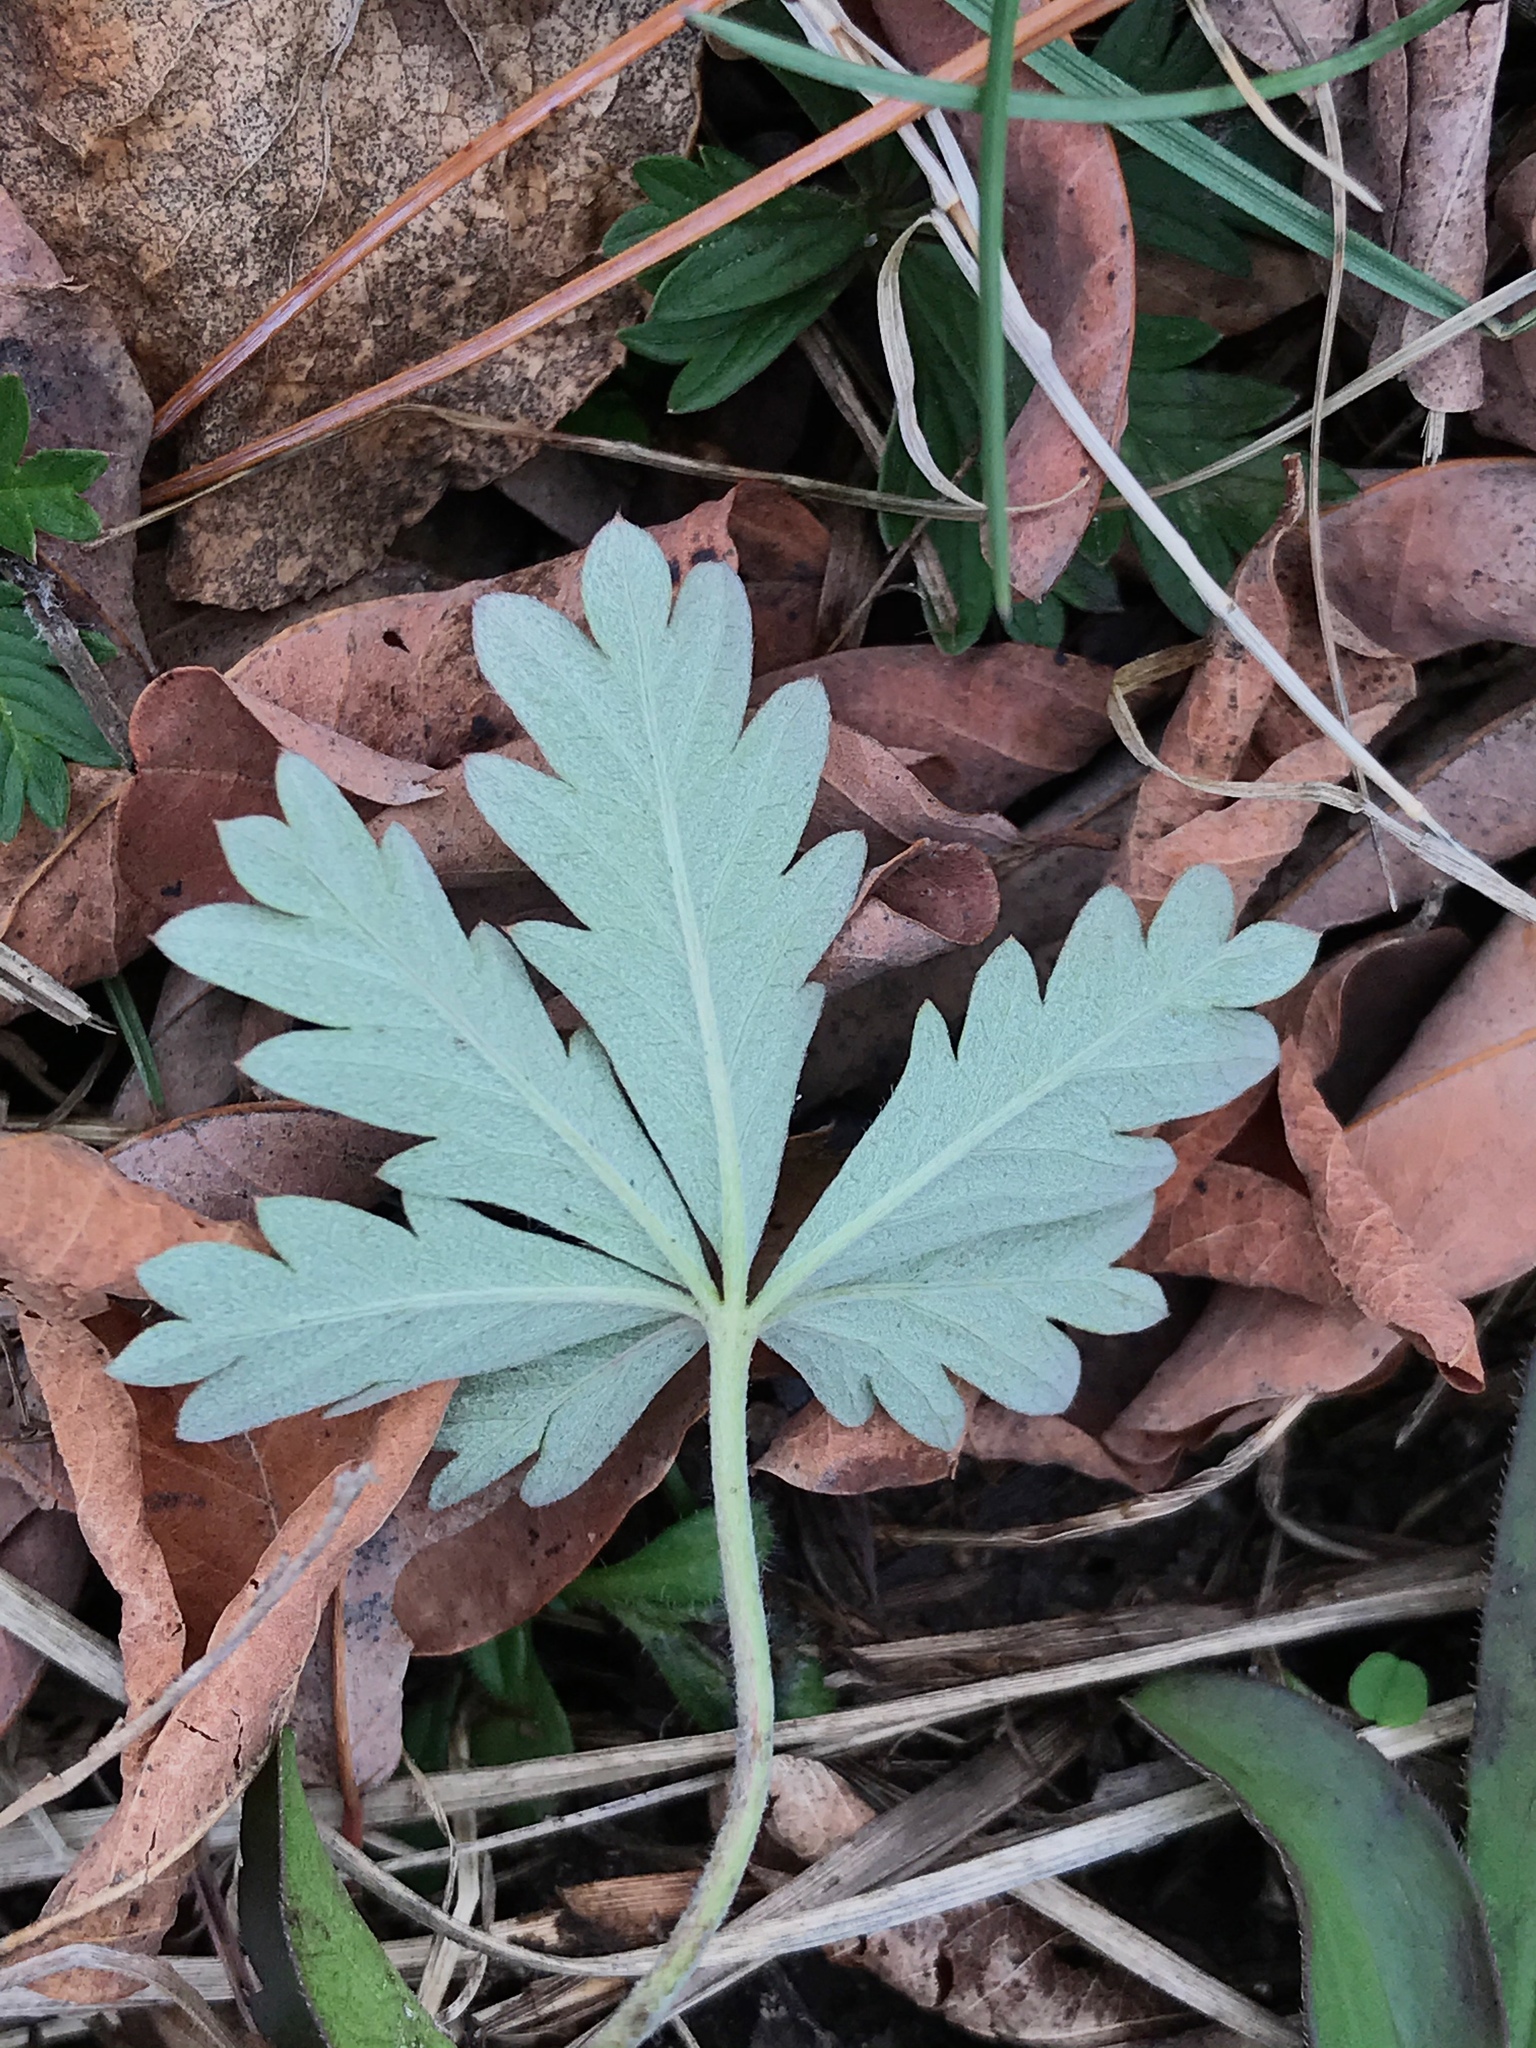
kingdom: Plantae
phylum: Tracheophyta
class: Magnoliopsida
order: Rosales
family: Rosaceae
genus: Potentilla
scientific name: Potentilla argentea
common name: Hoary cinquefoil
